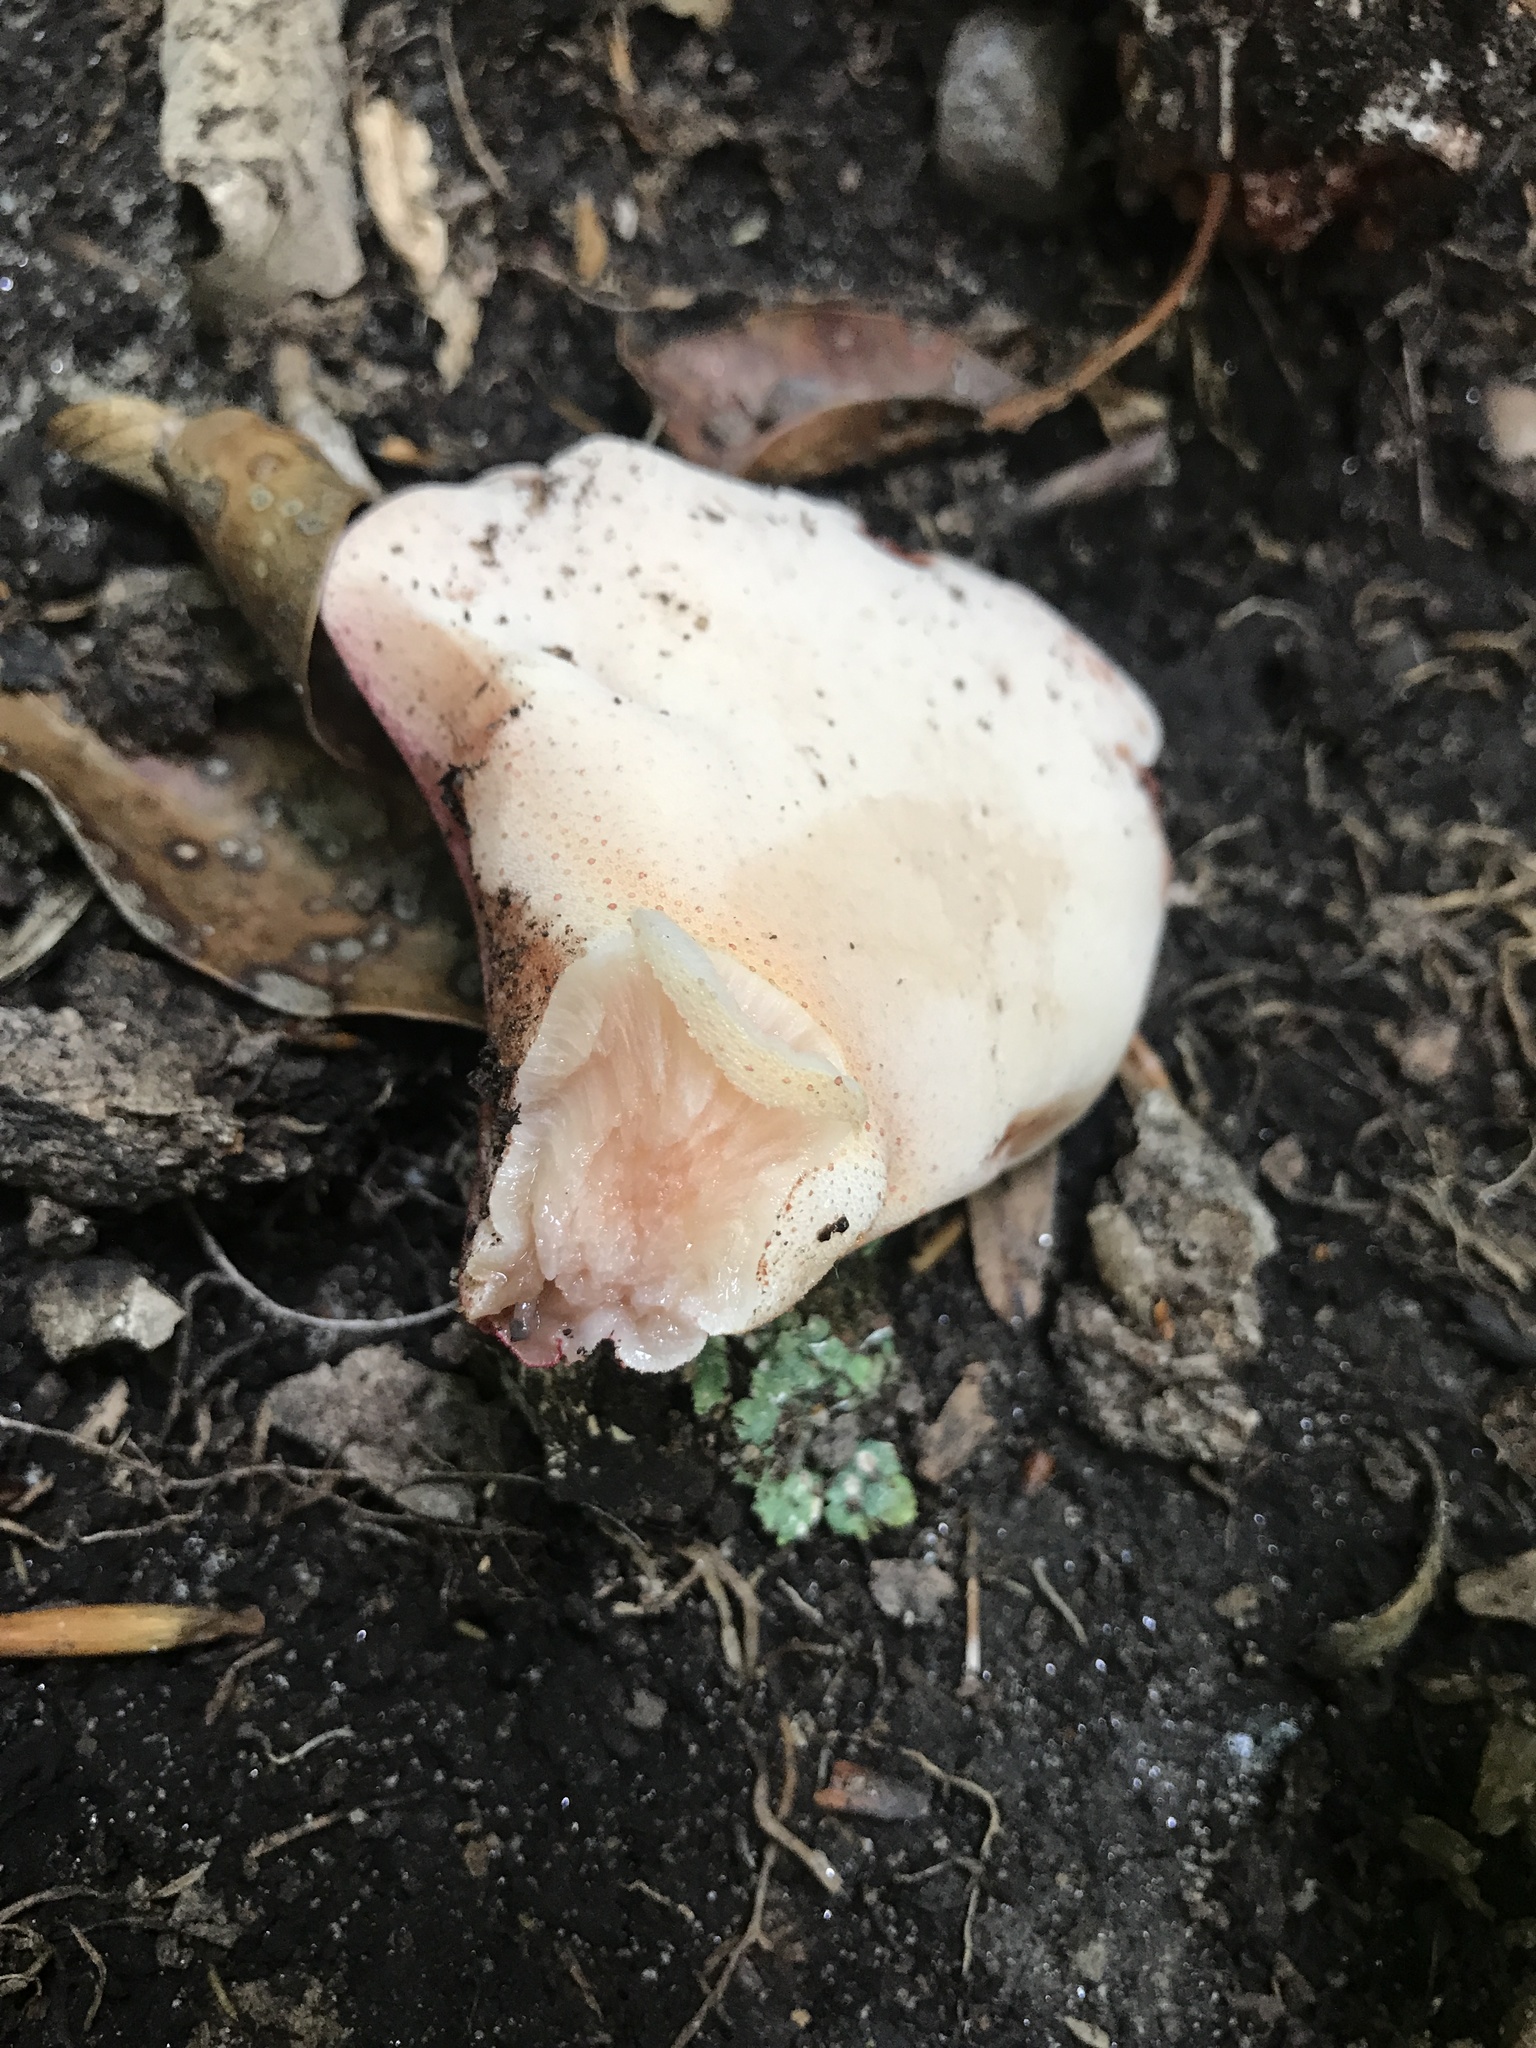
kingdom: Fungi
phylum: Basidiomycota
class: Agaricomycetes
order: Agaricales
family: Fistulinaceae
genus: Fistulina
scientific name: Fistulina hepatica
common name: Beef-steak fungus
